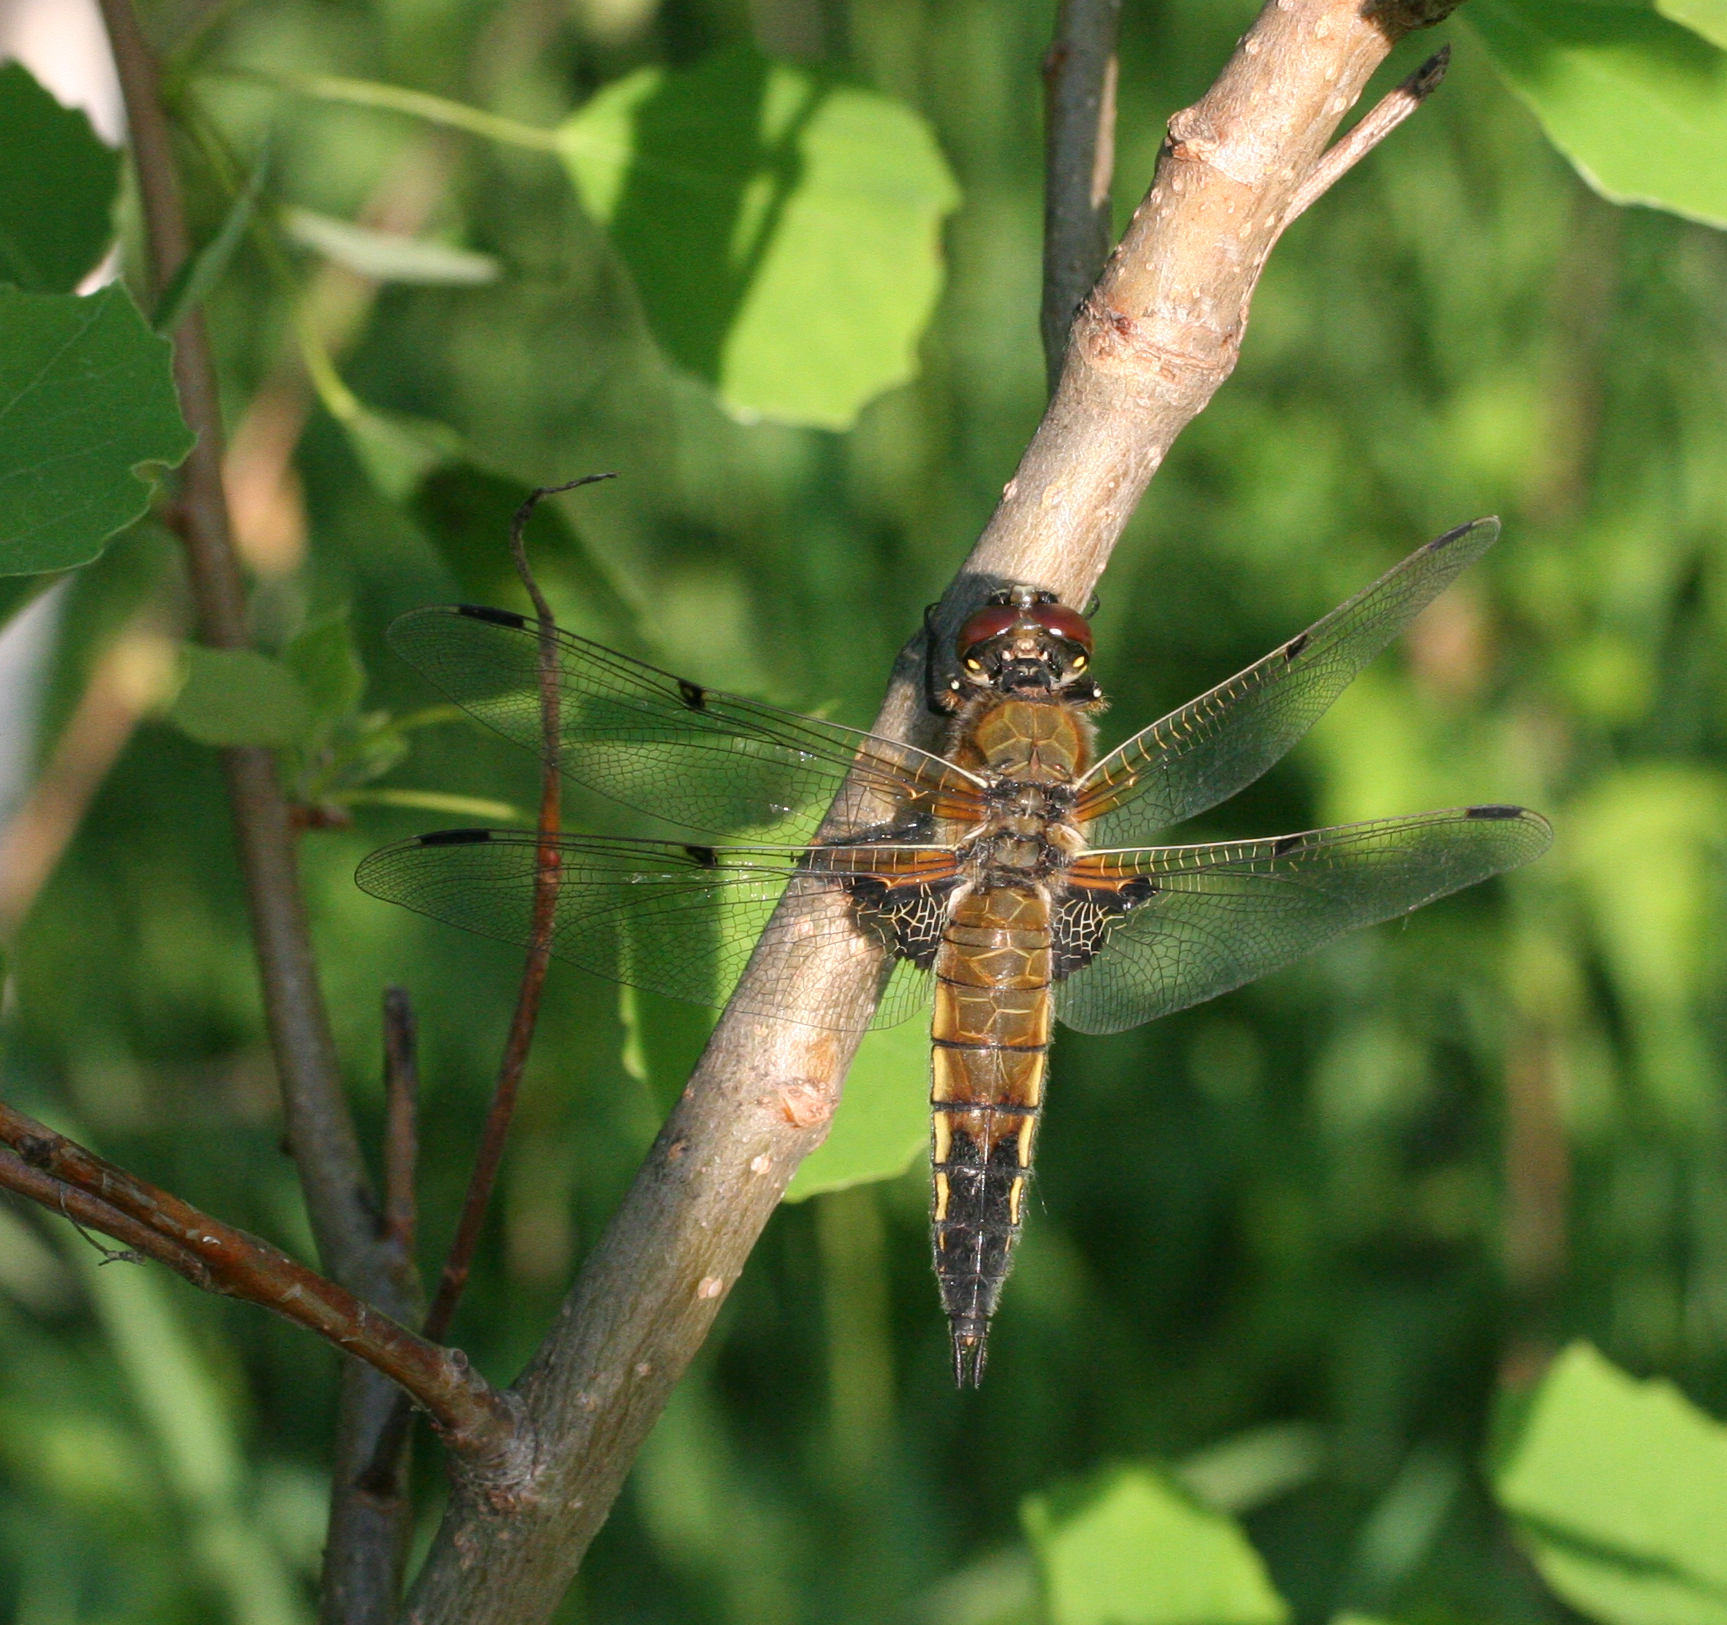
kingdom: Animalia
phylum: Arthropoda
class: Insecta
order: Odonata
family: Libellulidae
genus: Libellula
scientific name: Libellula quadrimaculata
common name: Four-spotted chaser
